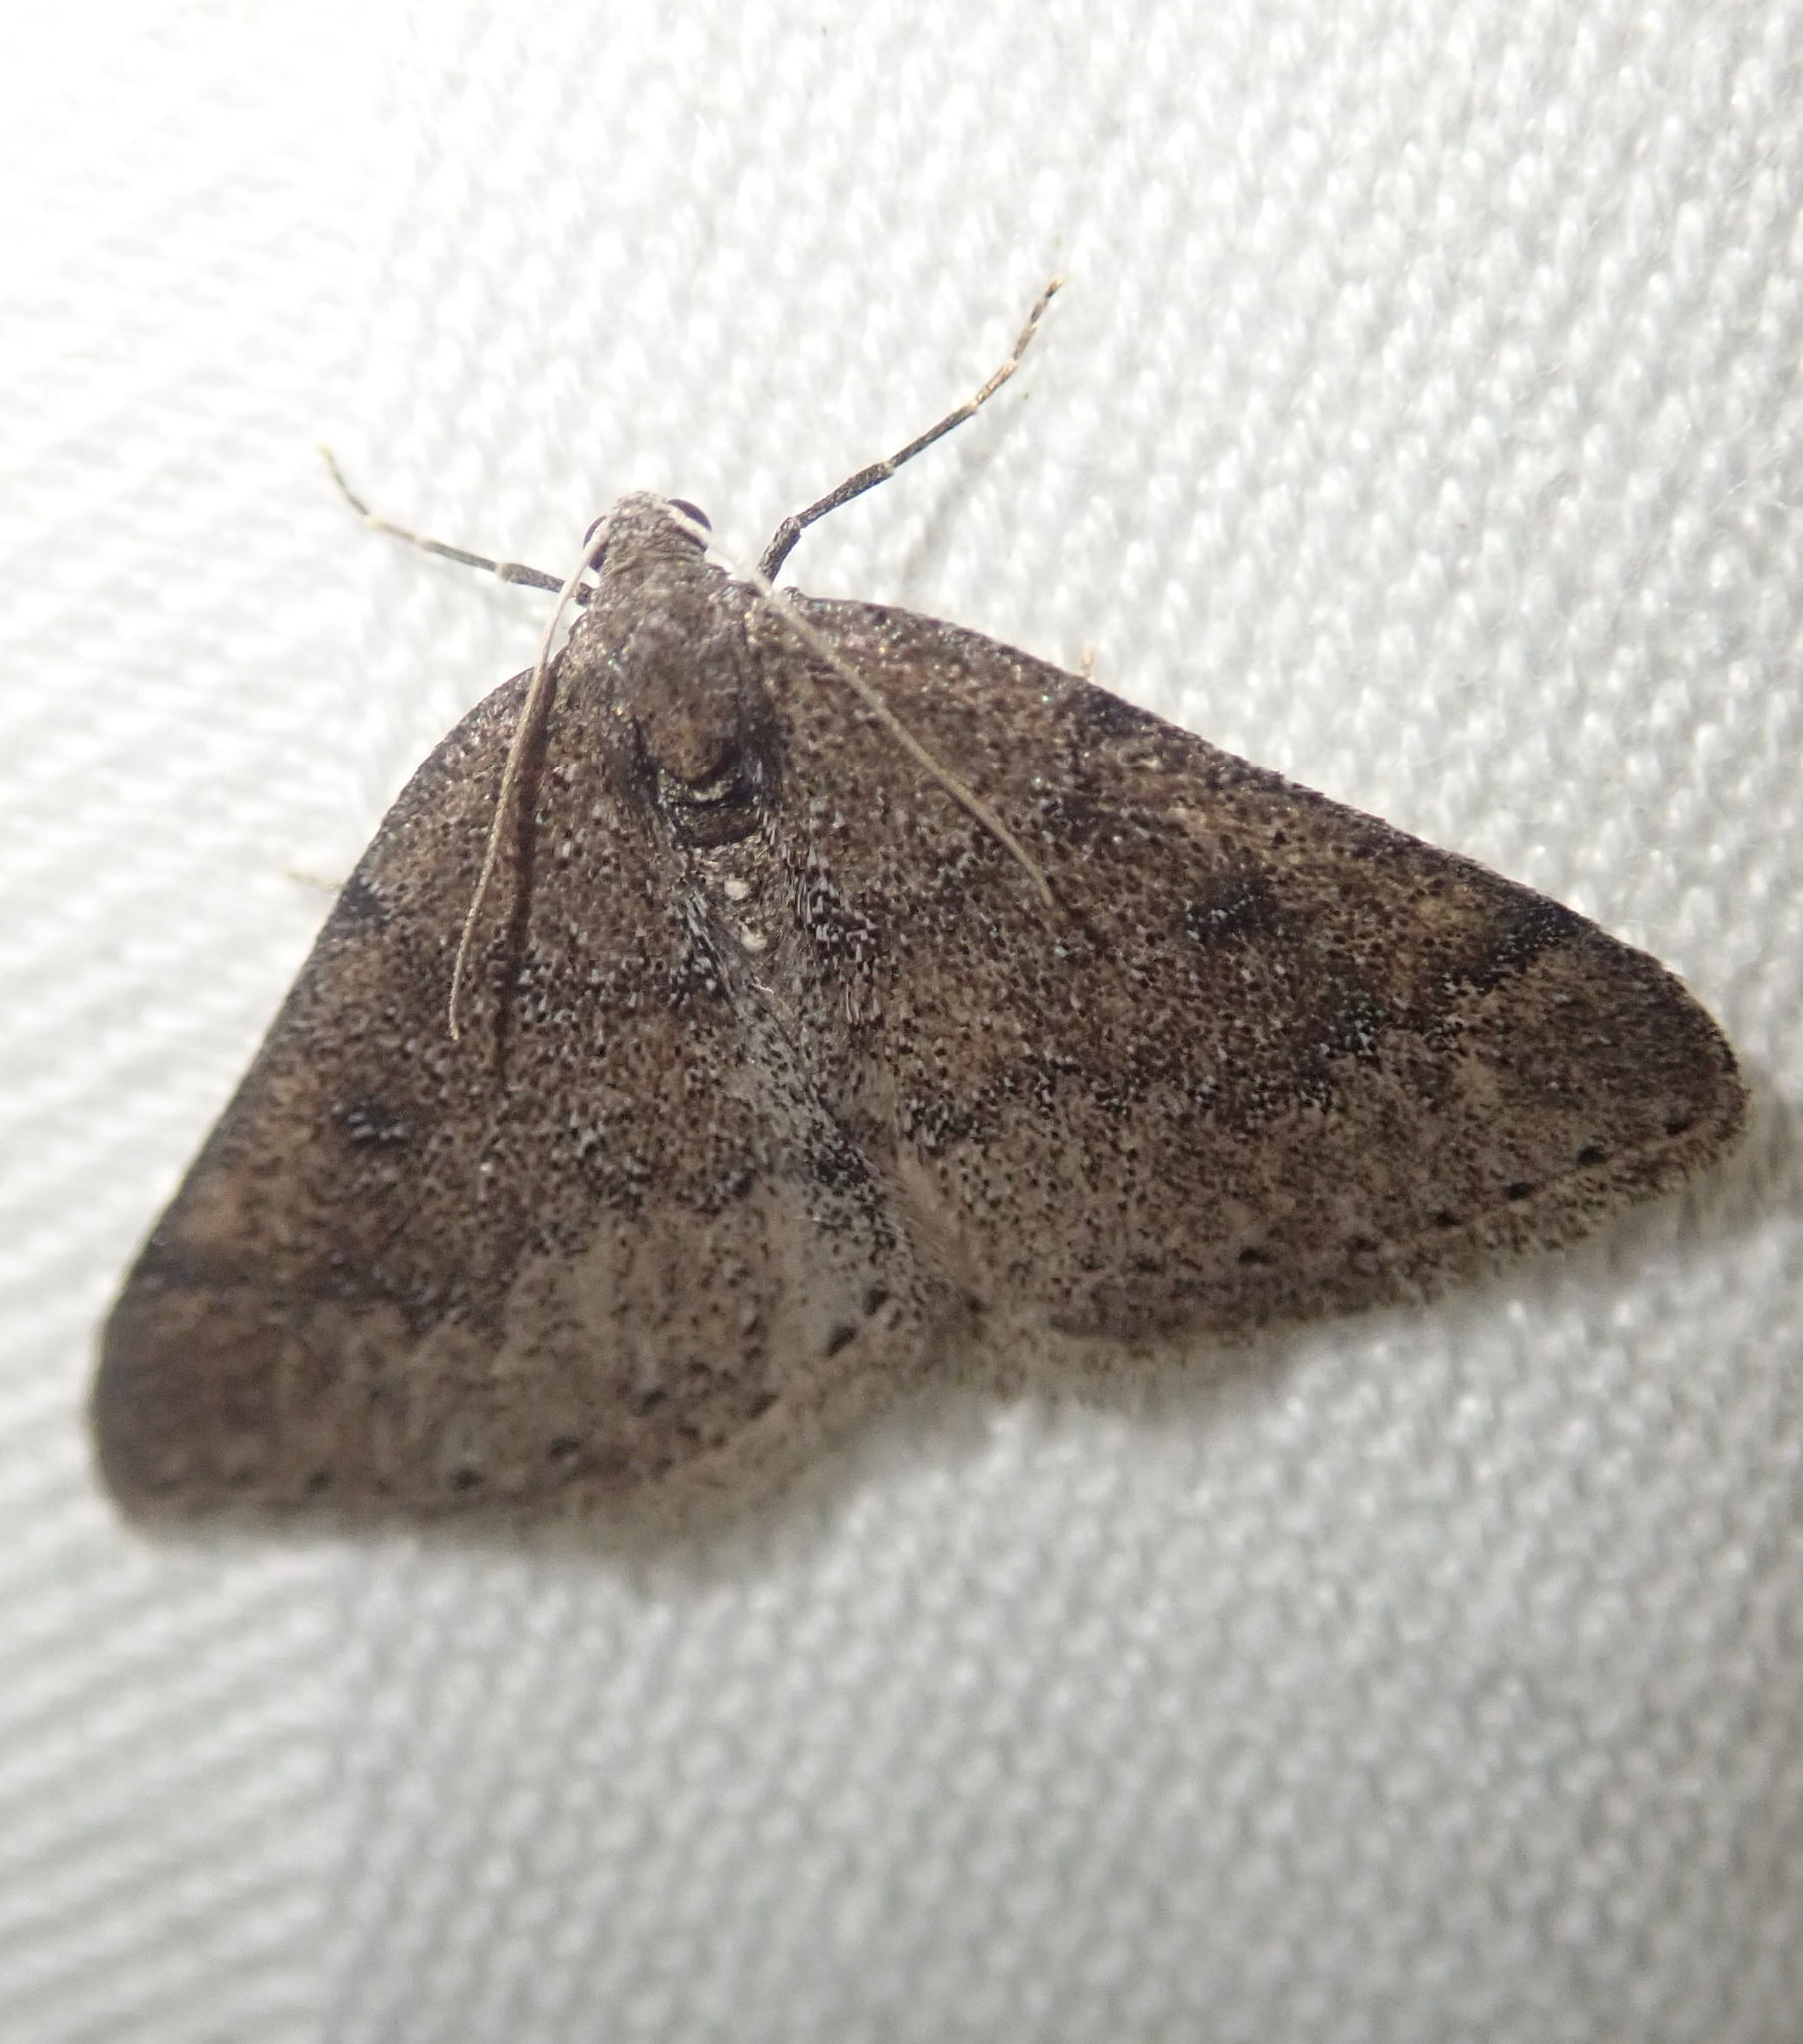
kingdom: Animalia
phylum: Arthropoda
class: Insecta
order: Lepidoptera
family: Geometridae
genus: Aleucis
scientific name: Aleucis distinctata
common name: Sloe carpet
